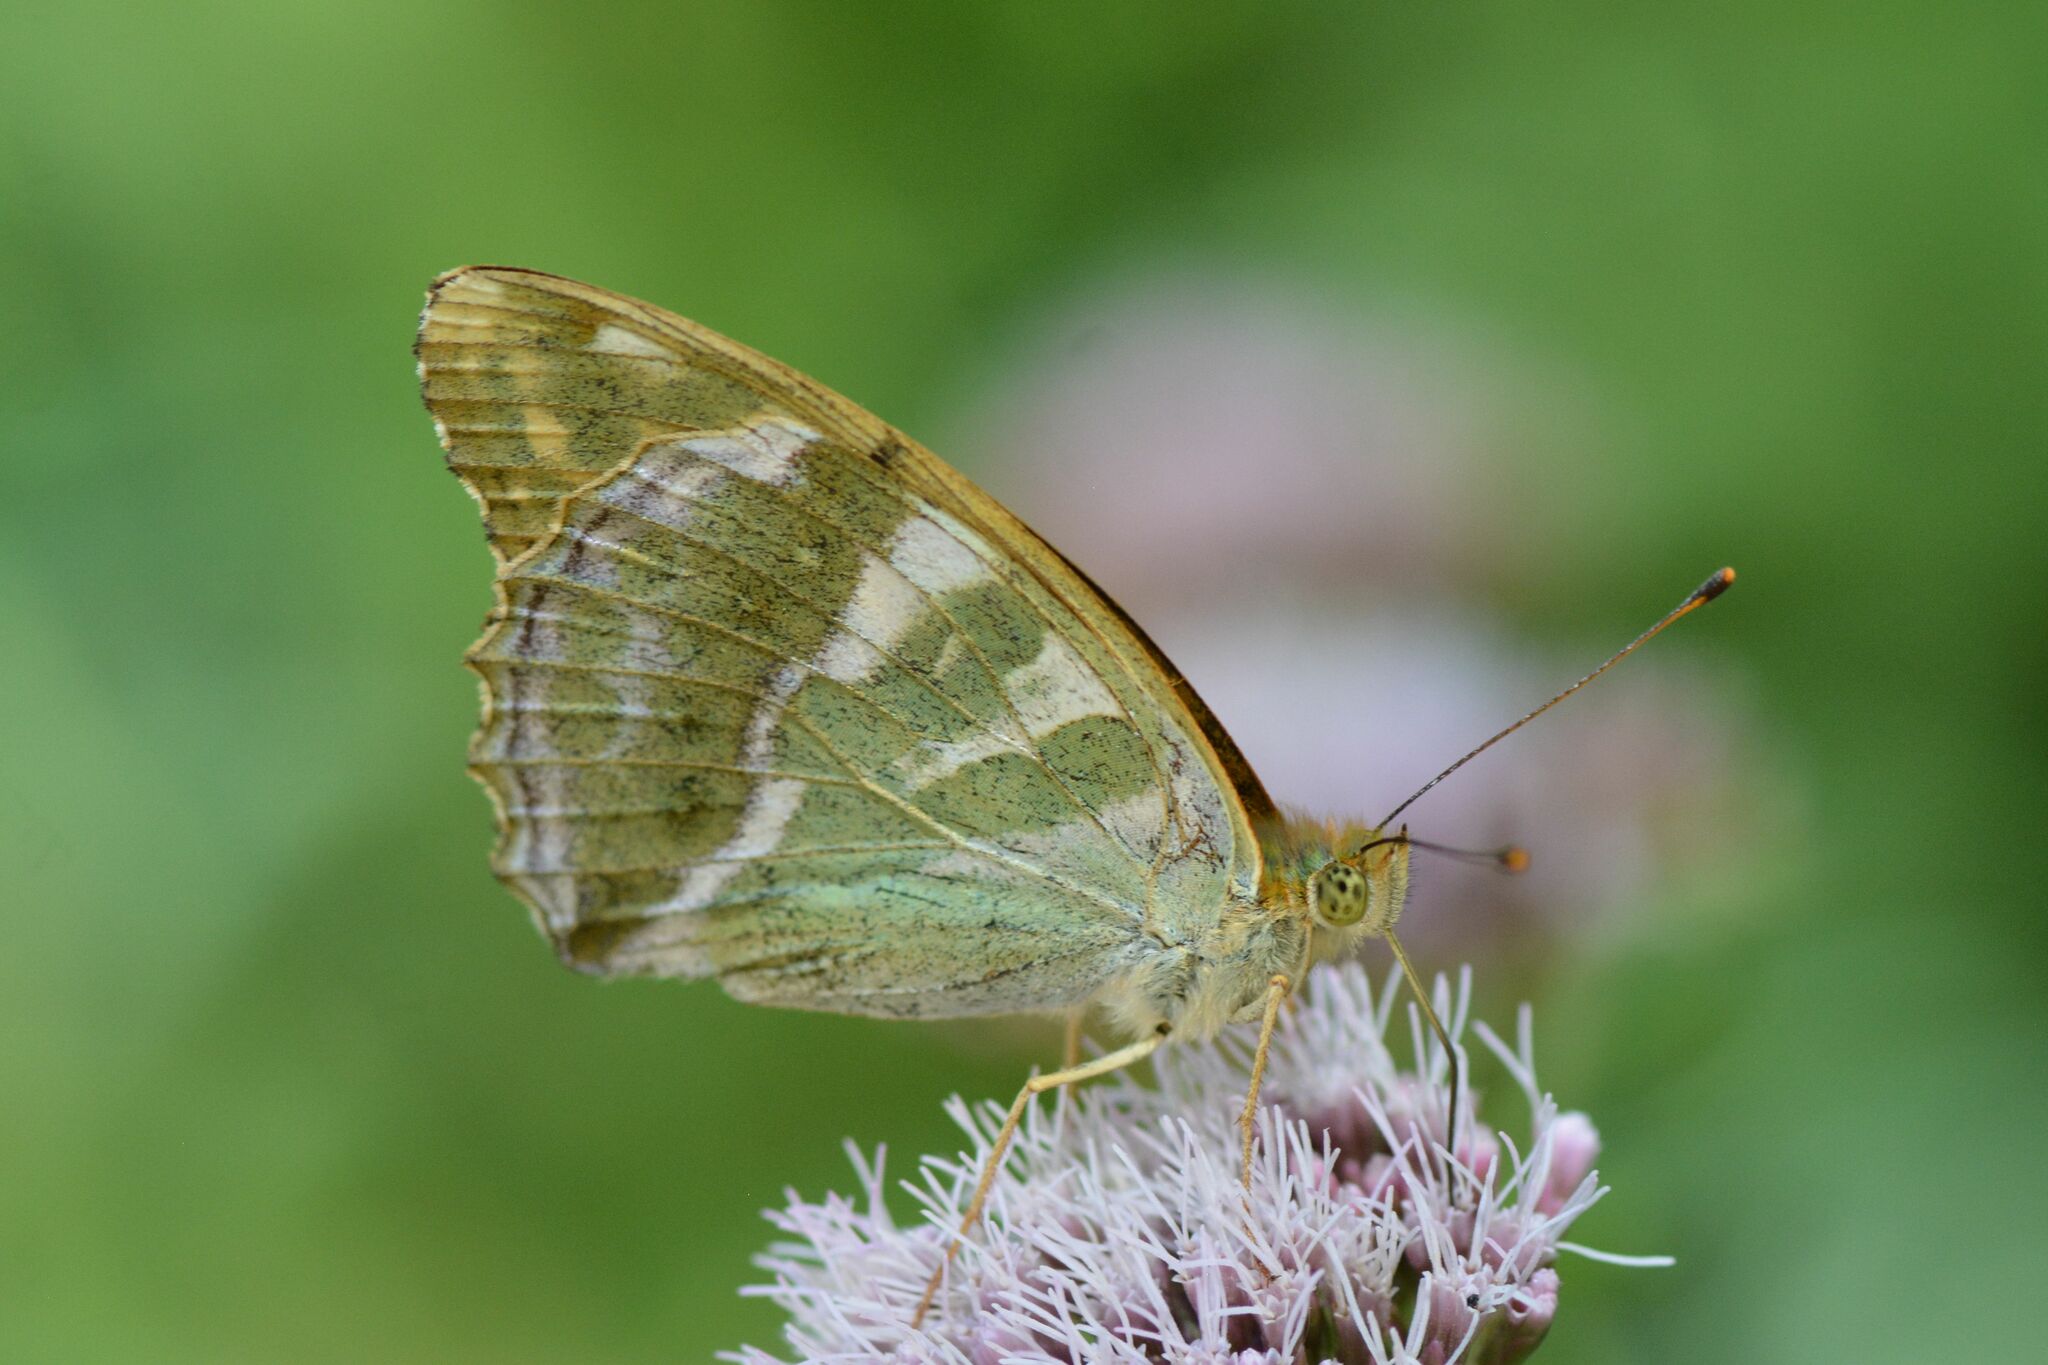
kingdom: Animalia
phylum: Arthropoda
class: Insecta
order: Lepidoptera
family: Nymphalidae
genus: Argynnis
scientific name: Argynnis paphia
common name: Silver-washed fritillary
